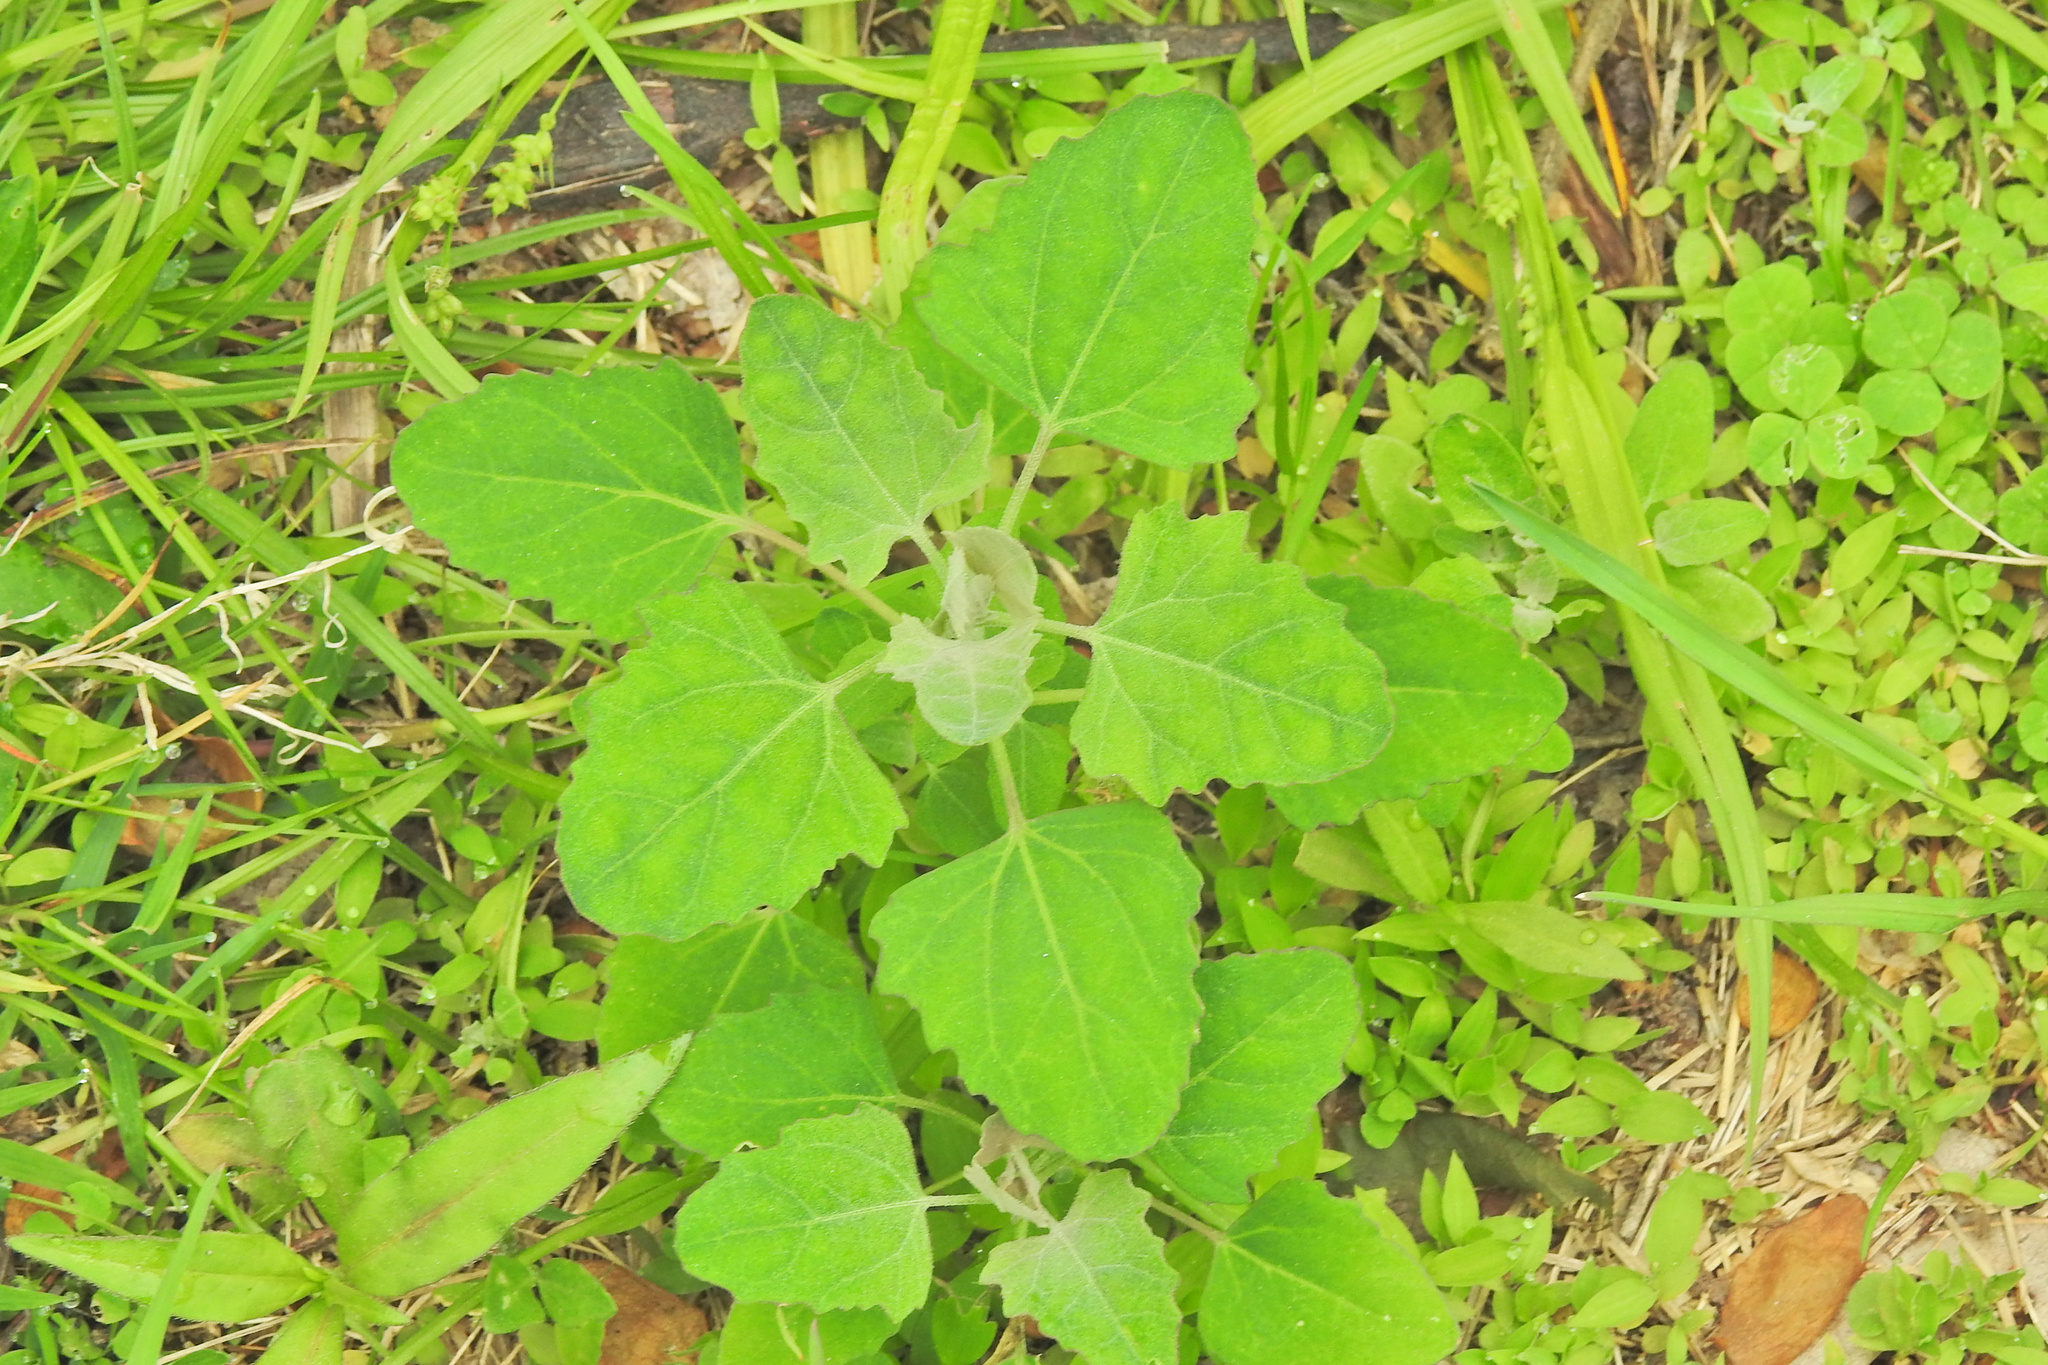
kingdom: Plantae
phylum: Tracheophyta
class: Magnoliopsida
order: Caryophyllales
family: Amaranthaceae
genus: Chenopodium
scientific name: Chenopodium album
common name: Fat-hen
